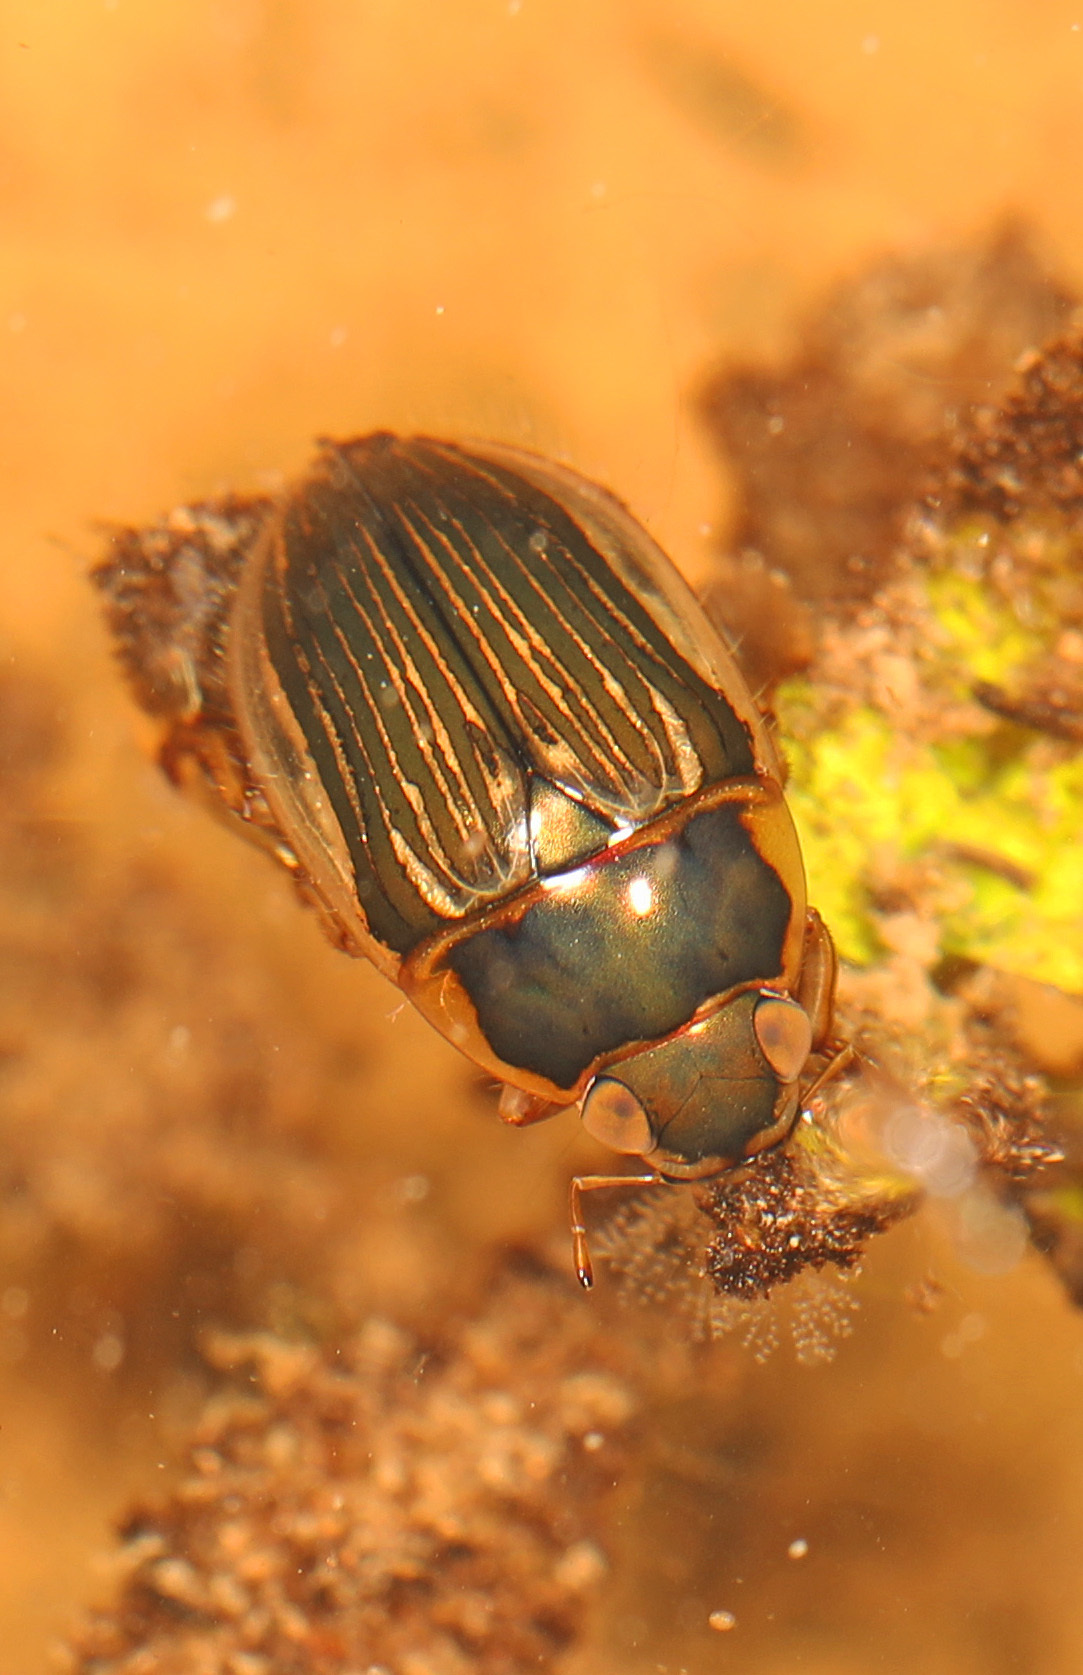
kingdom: Animalia
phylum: Arthropoda
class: Insecta
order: Coleoptera
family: Hydrophilidae
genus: Tropisternus
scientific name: Tropisternus collaris
